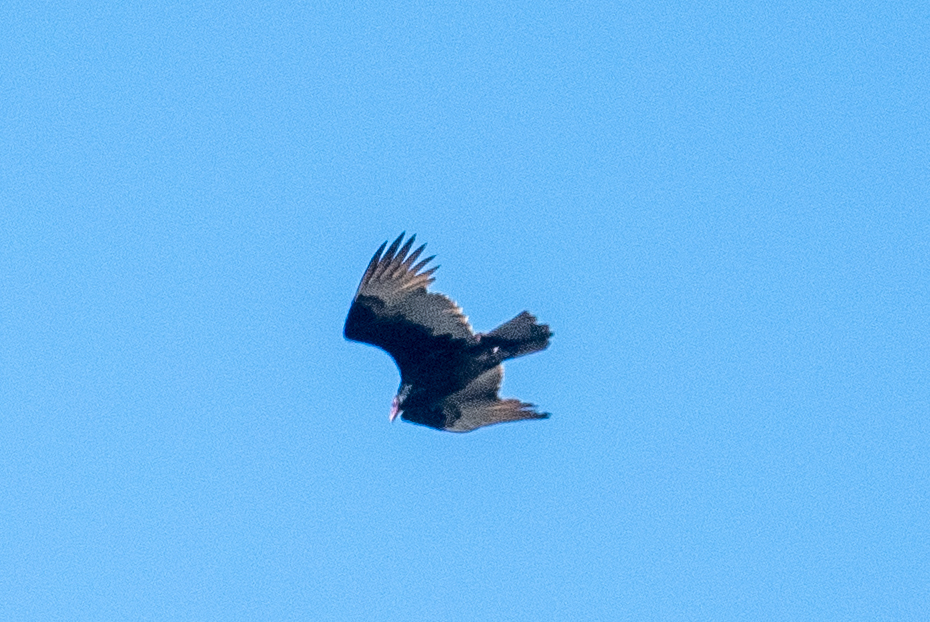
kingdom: Animalia
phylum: Chordata
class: Aves
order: Accipitriformes
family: Cathartidae
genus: Cathartes
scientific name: Cathartes aura
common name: Turkey vulture
